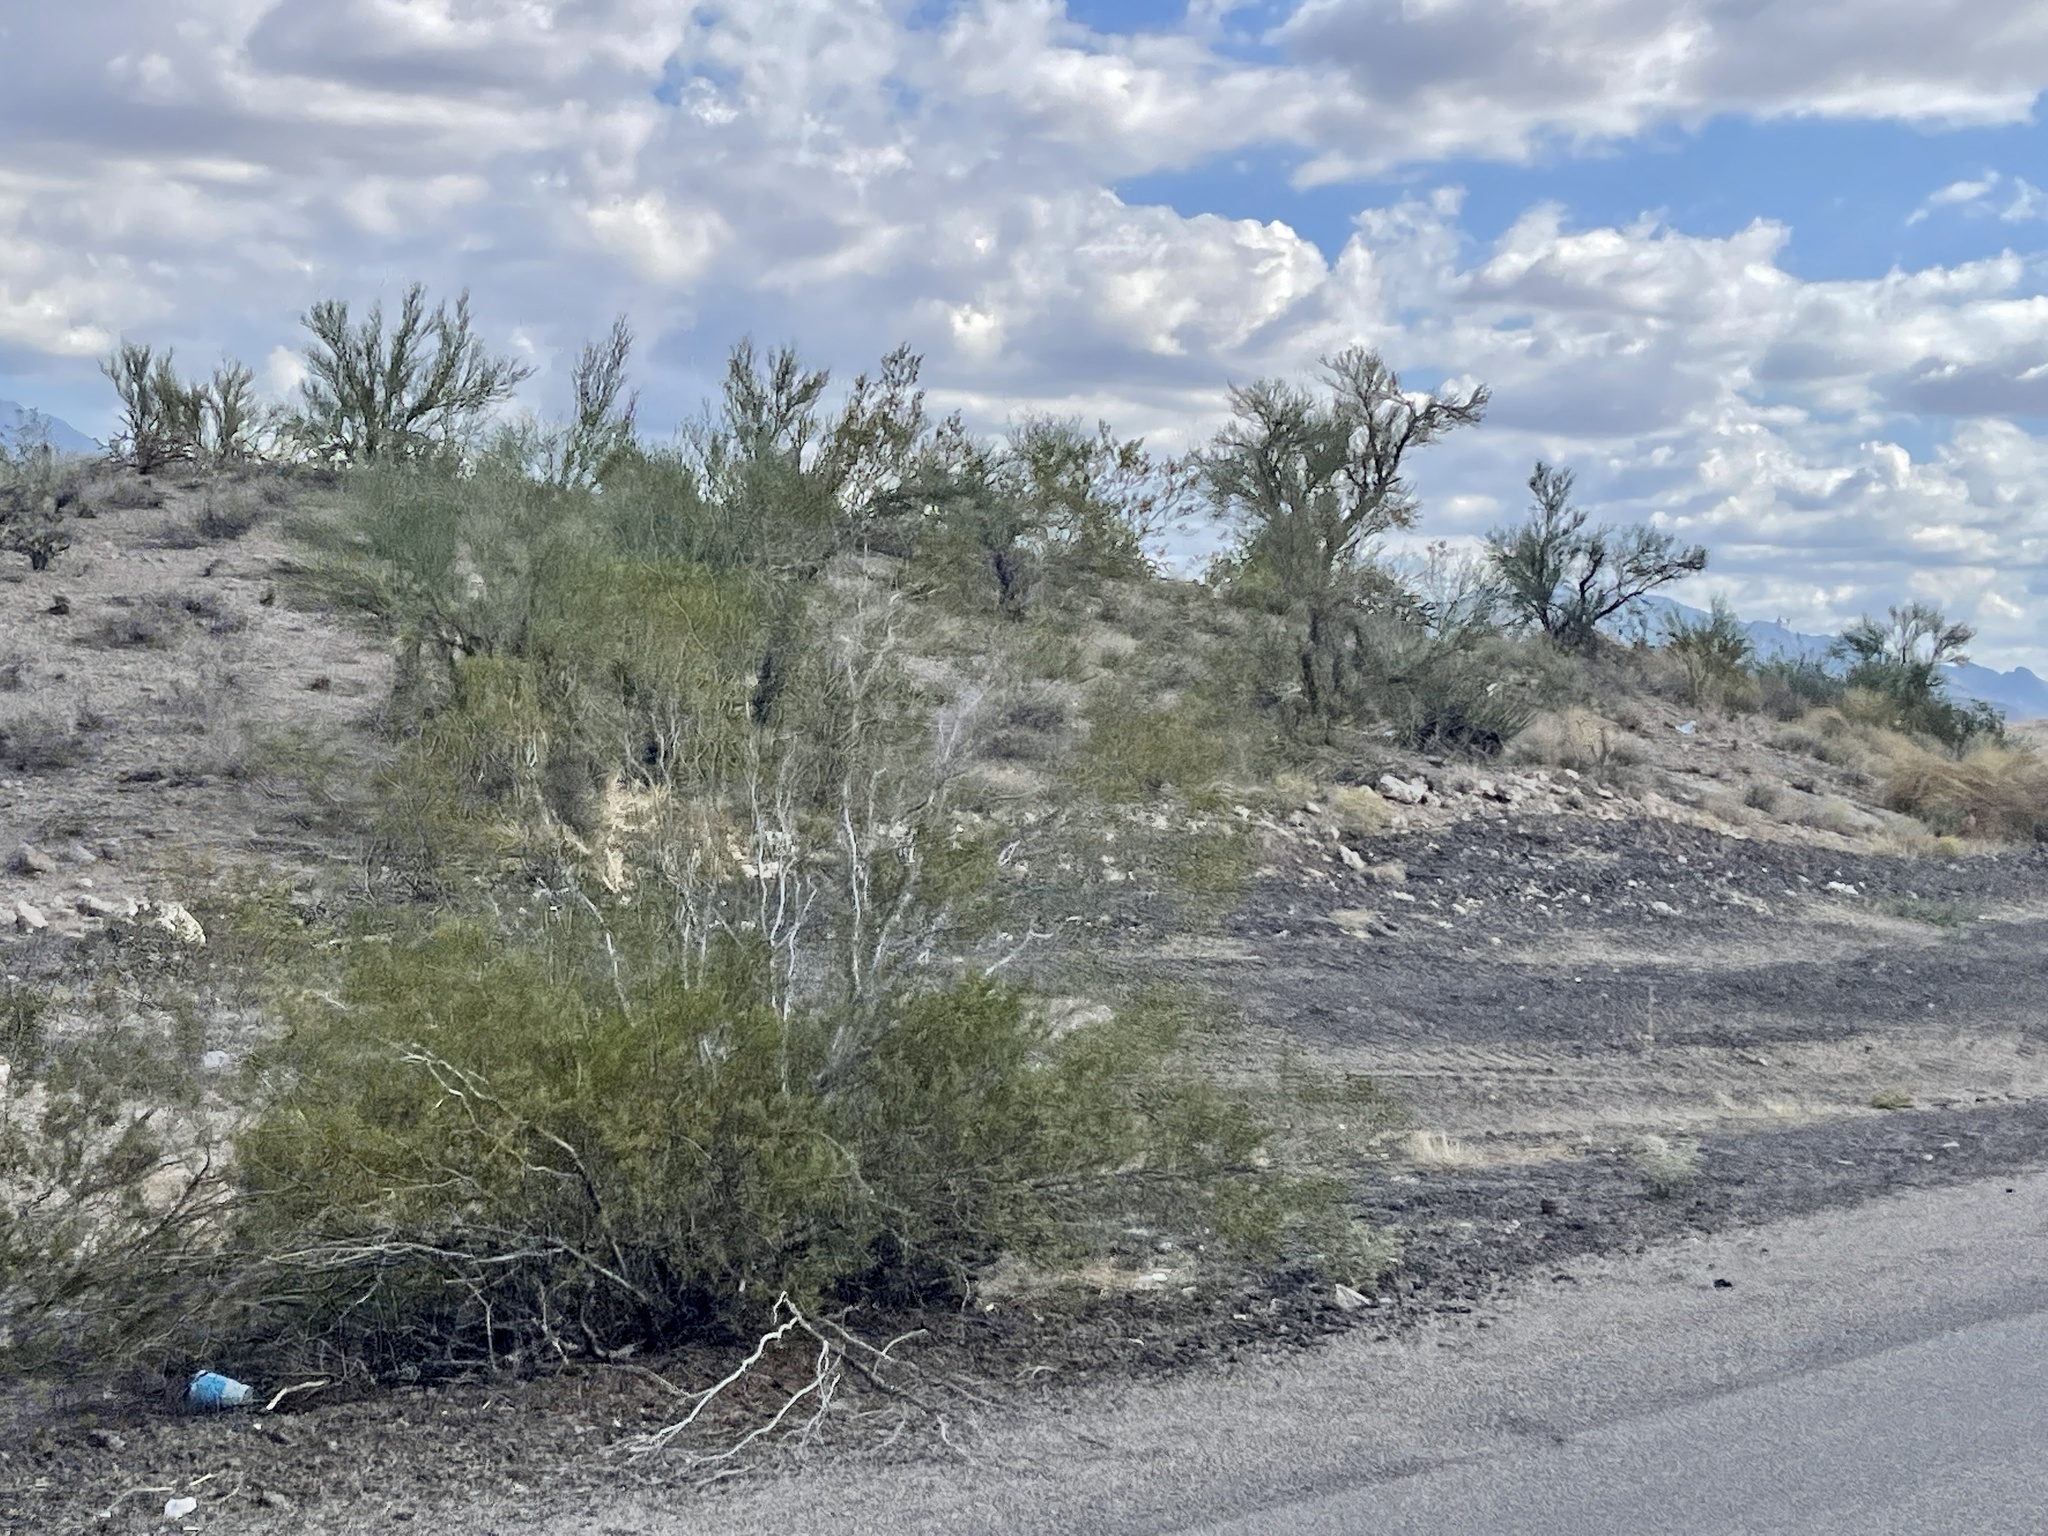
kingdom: Plantae
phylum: Tracheophyta
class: Magnoliopsida
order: Zygophyllales
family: Zygophyllaceae
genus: Larrea
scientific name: Larrea tridentata
